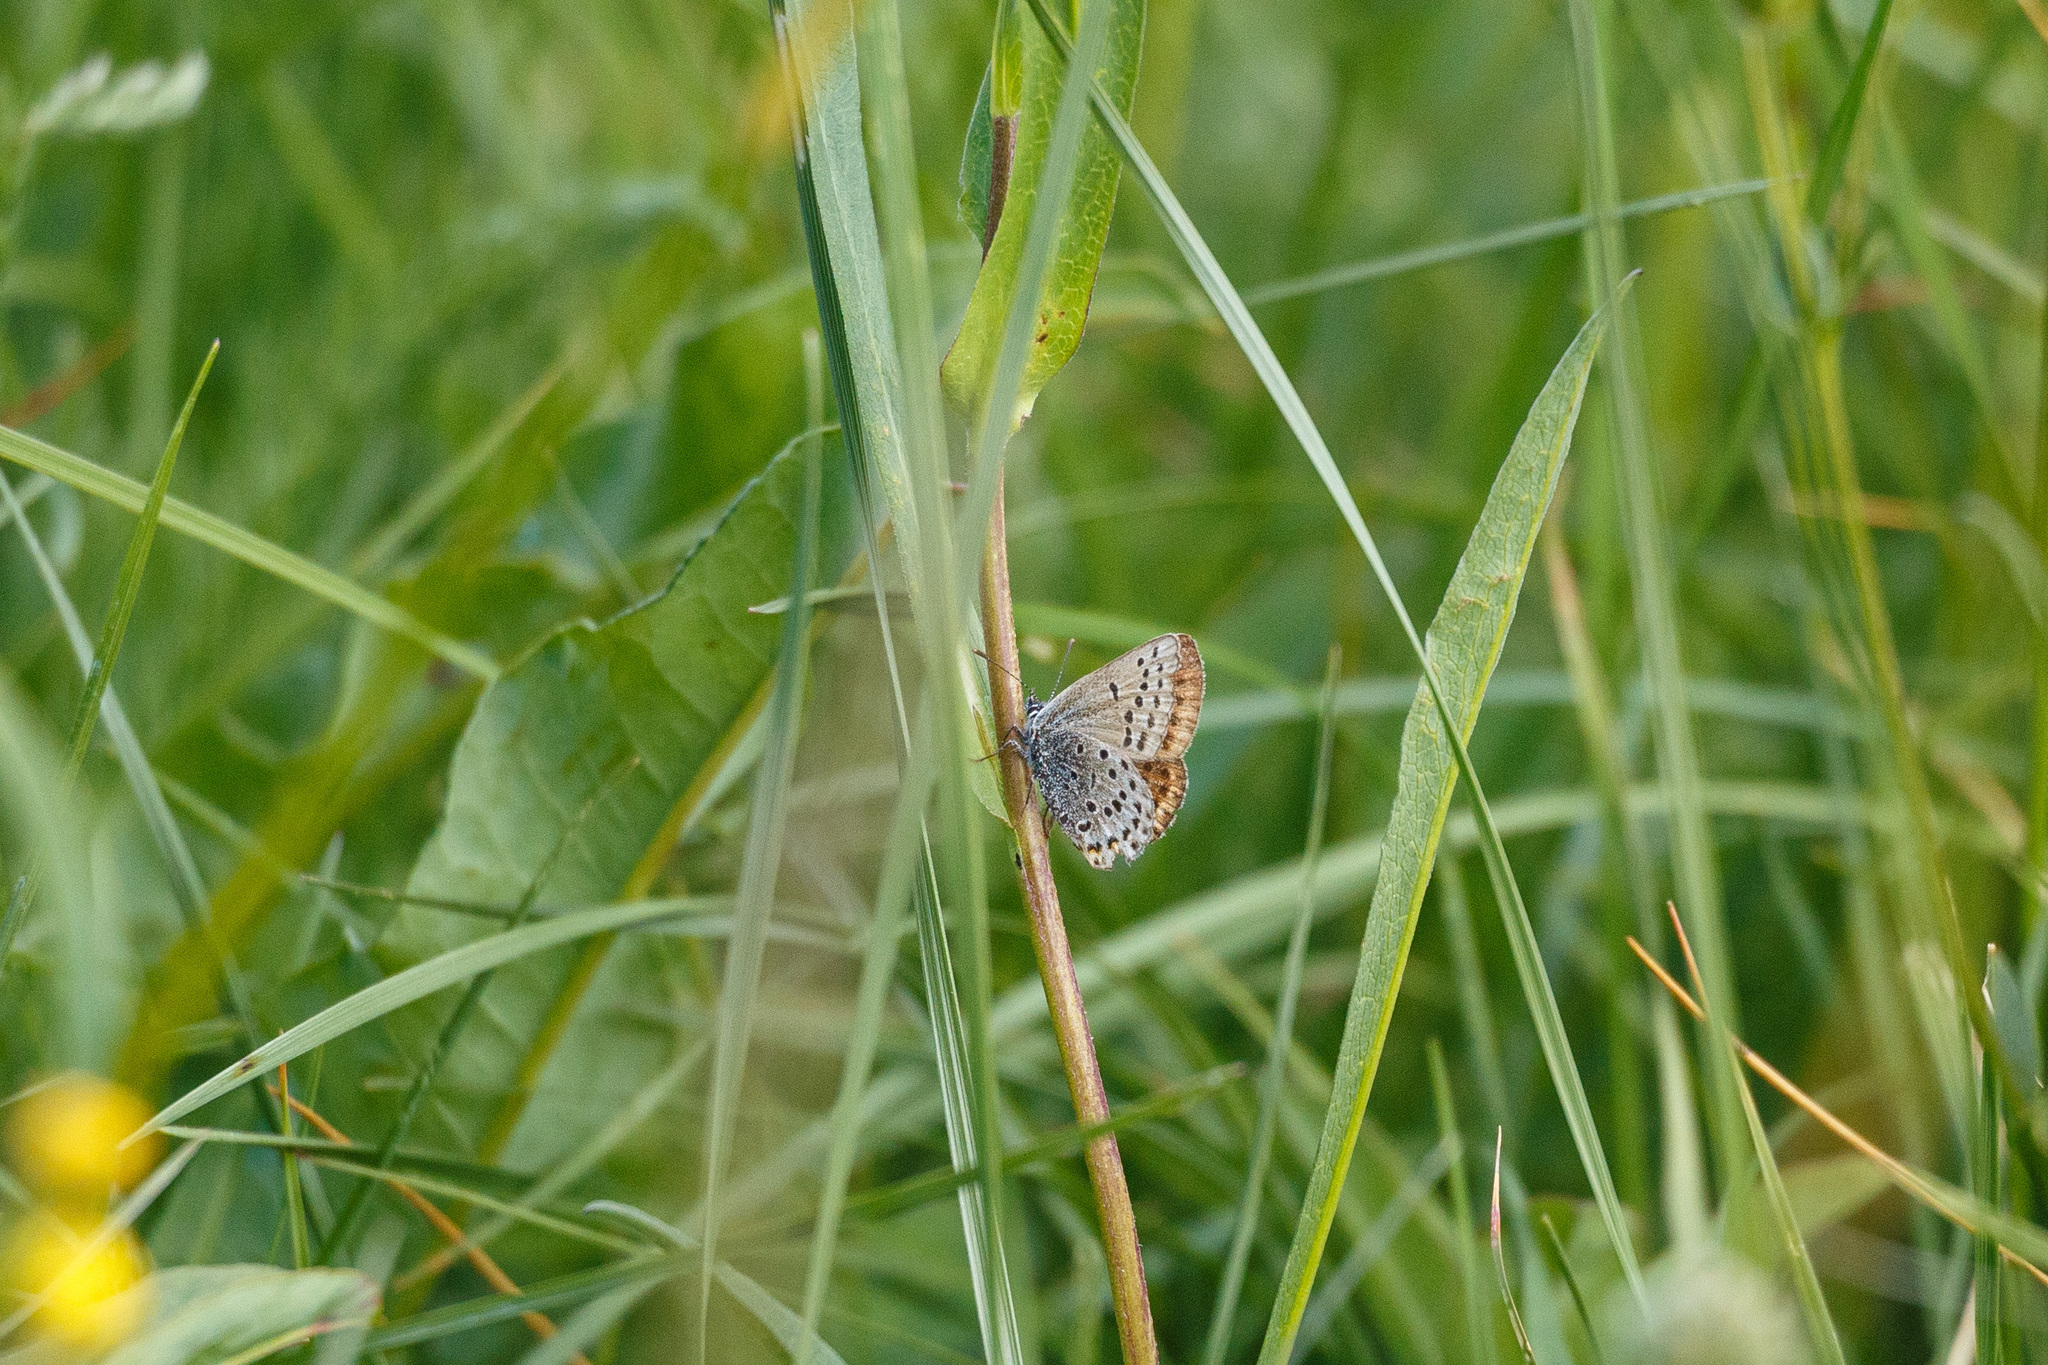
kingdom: Animalia
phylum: Arthropoda
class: Insecta
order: Lepidoptera
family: Lycaenidae
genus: Icaricia
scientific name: Icaricia saepiolus
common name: Greenish blue
